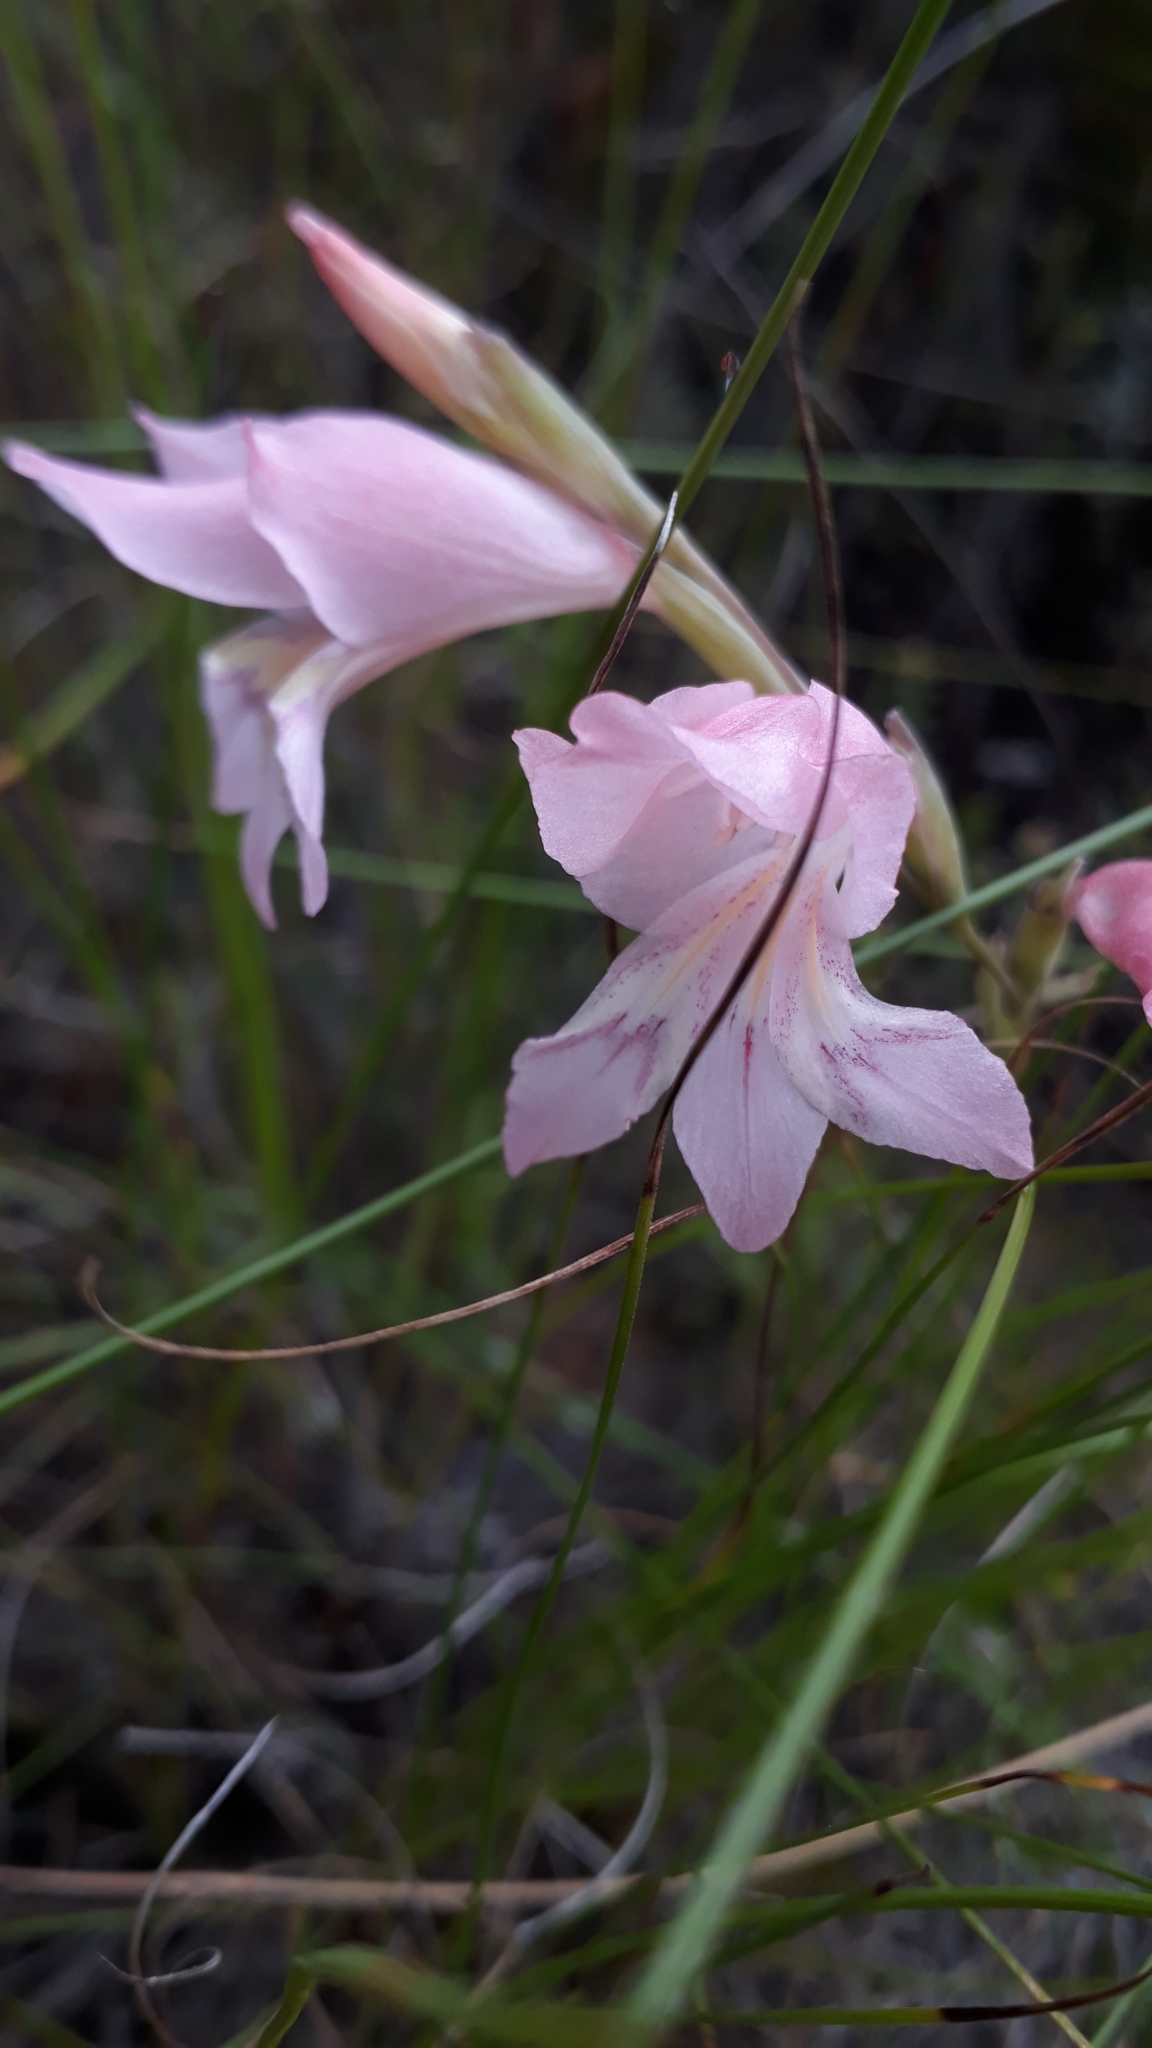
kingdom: Plantae
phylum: Tracheophyta
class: Liliopsida
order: Asparagales
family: Iridaceae
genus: Gladiolus
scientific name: Gladiolus brevifolius
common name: March pypie
